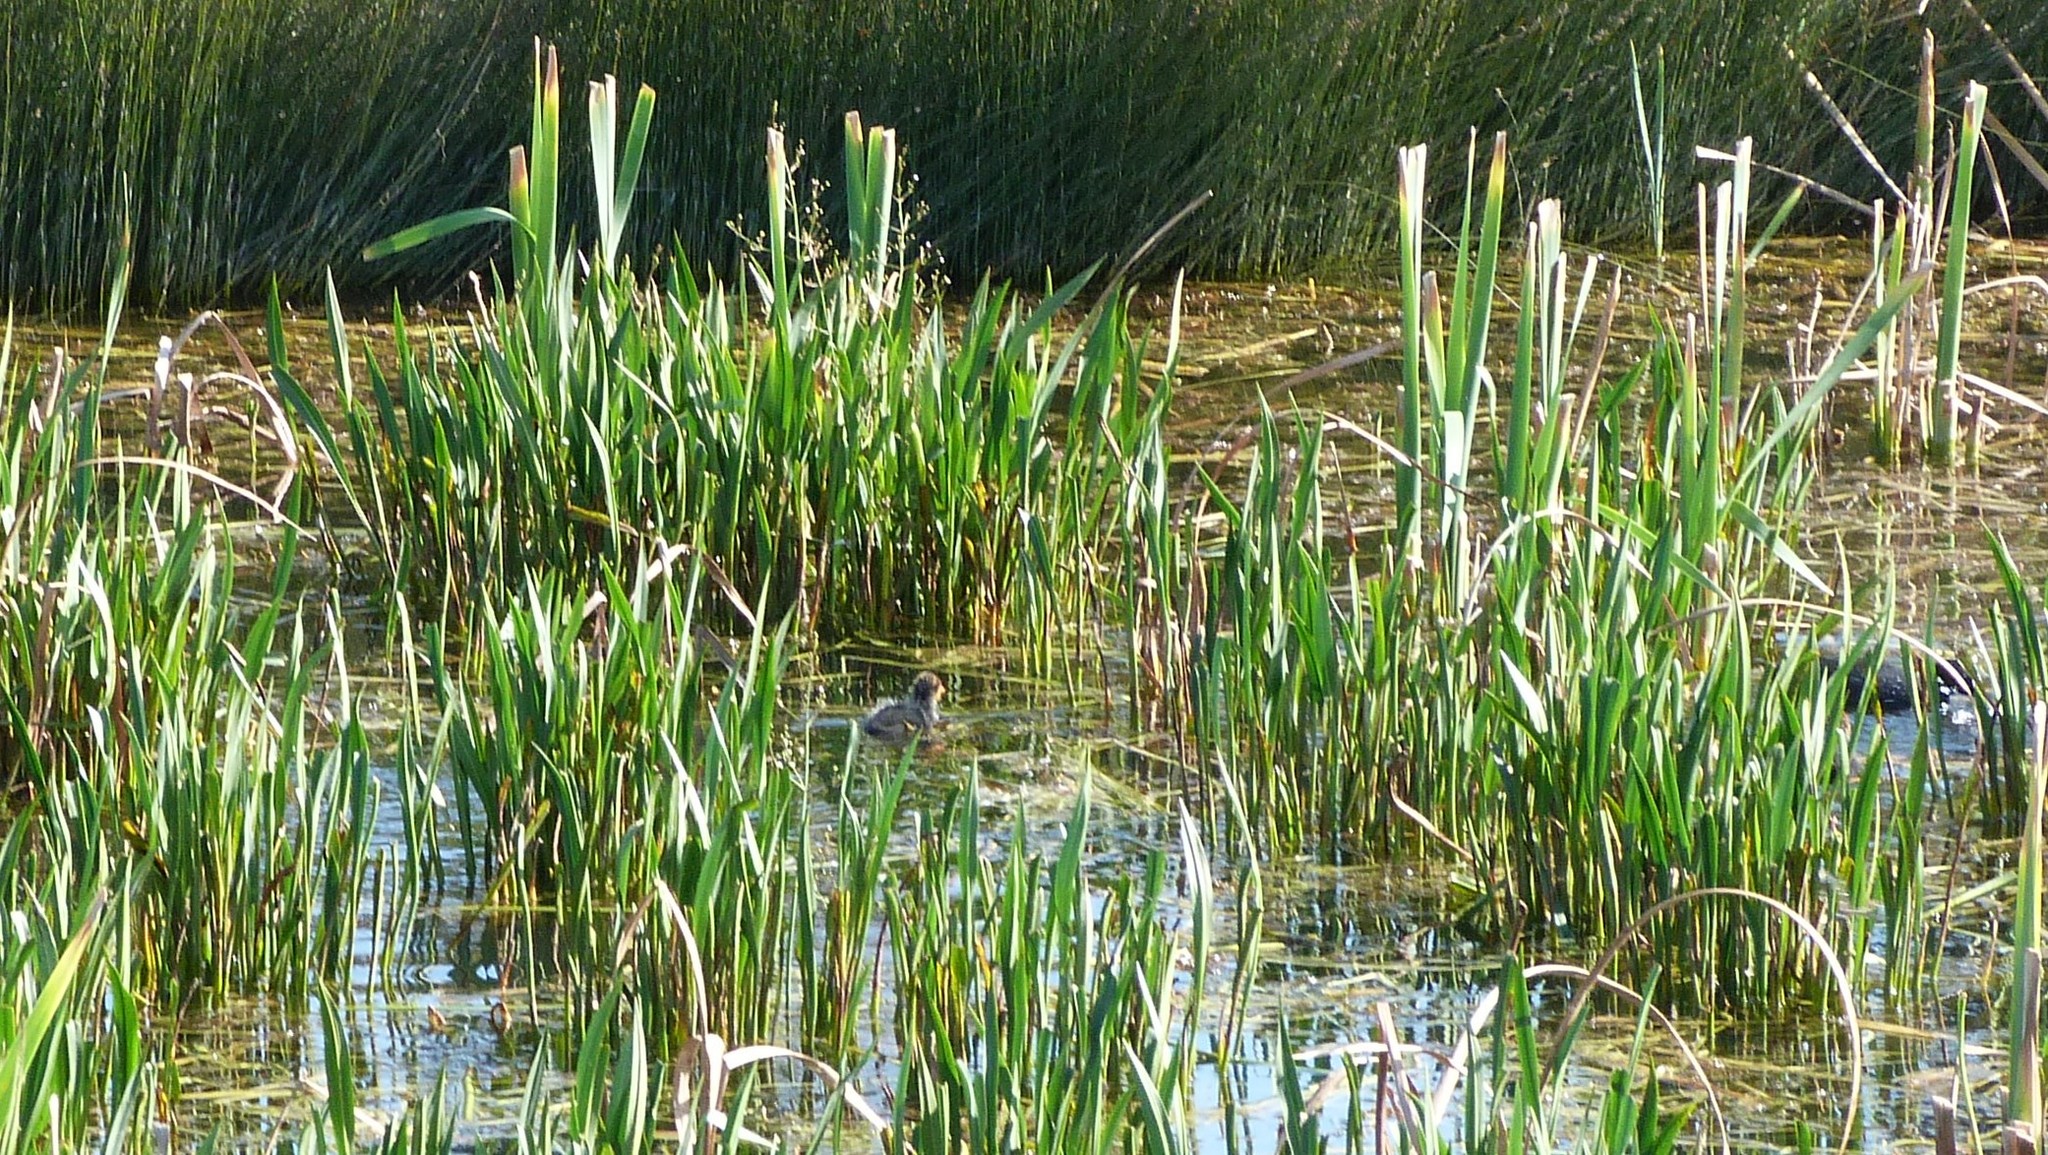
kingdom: Animalia
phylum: Chordata
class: Aves
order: Gruiformes
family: Rallidae
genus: Fulica
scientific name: Fulica atra
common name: Eurasian coot
